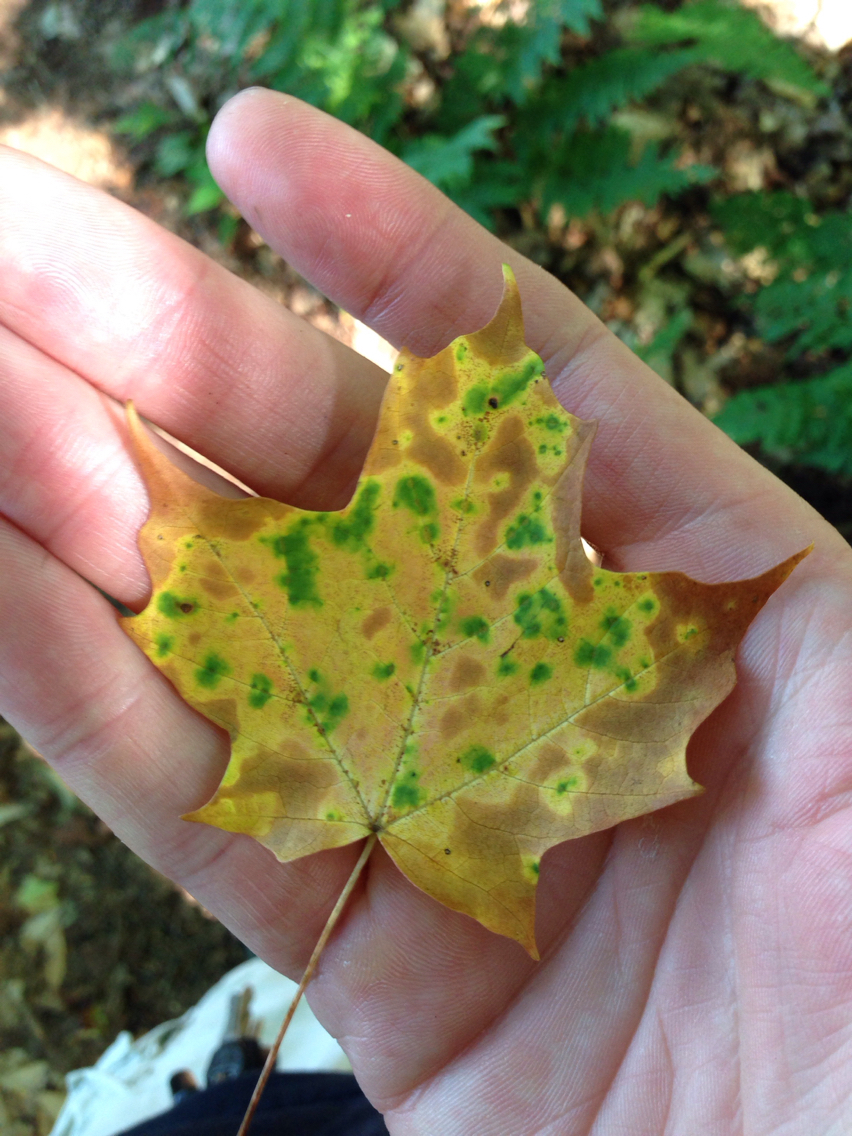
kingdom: Plantae
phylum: Tracheophyta
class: Magnoliopsida
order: Sapindales
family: Sapindaceae
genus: Acer
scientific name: Acer saccharum
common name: Sugar maple
